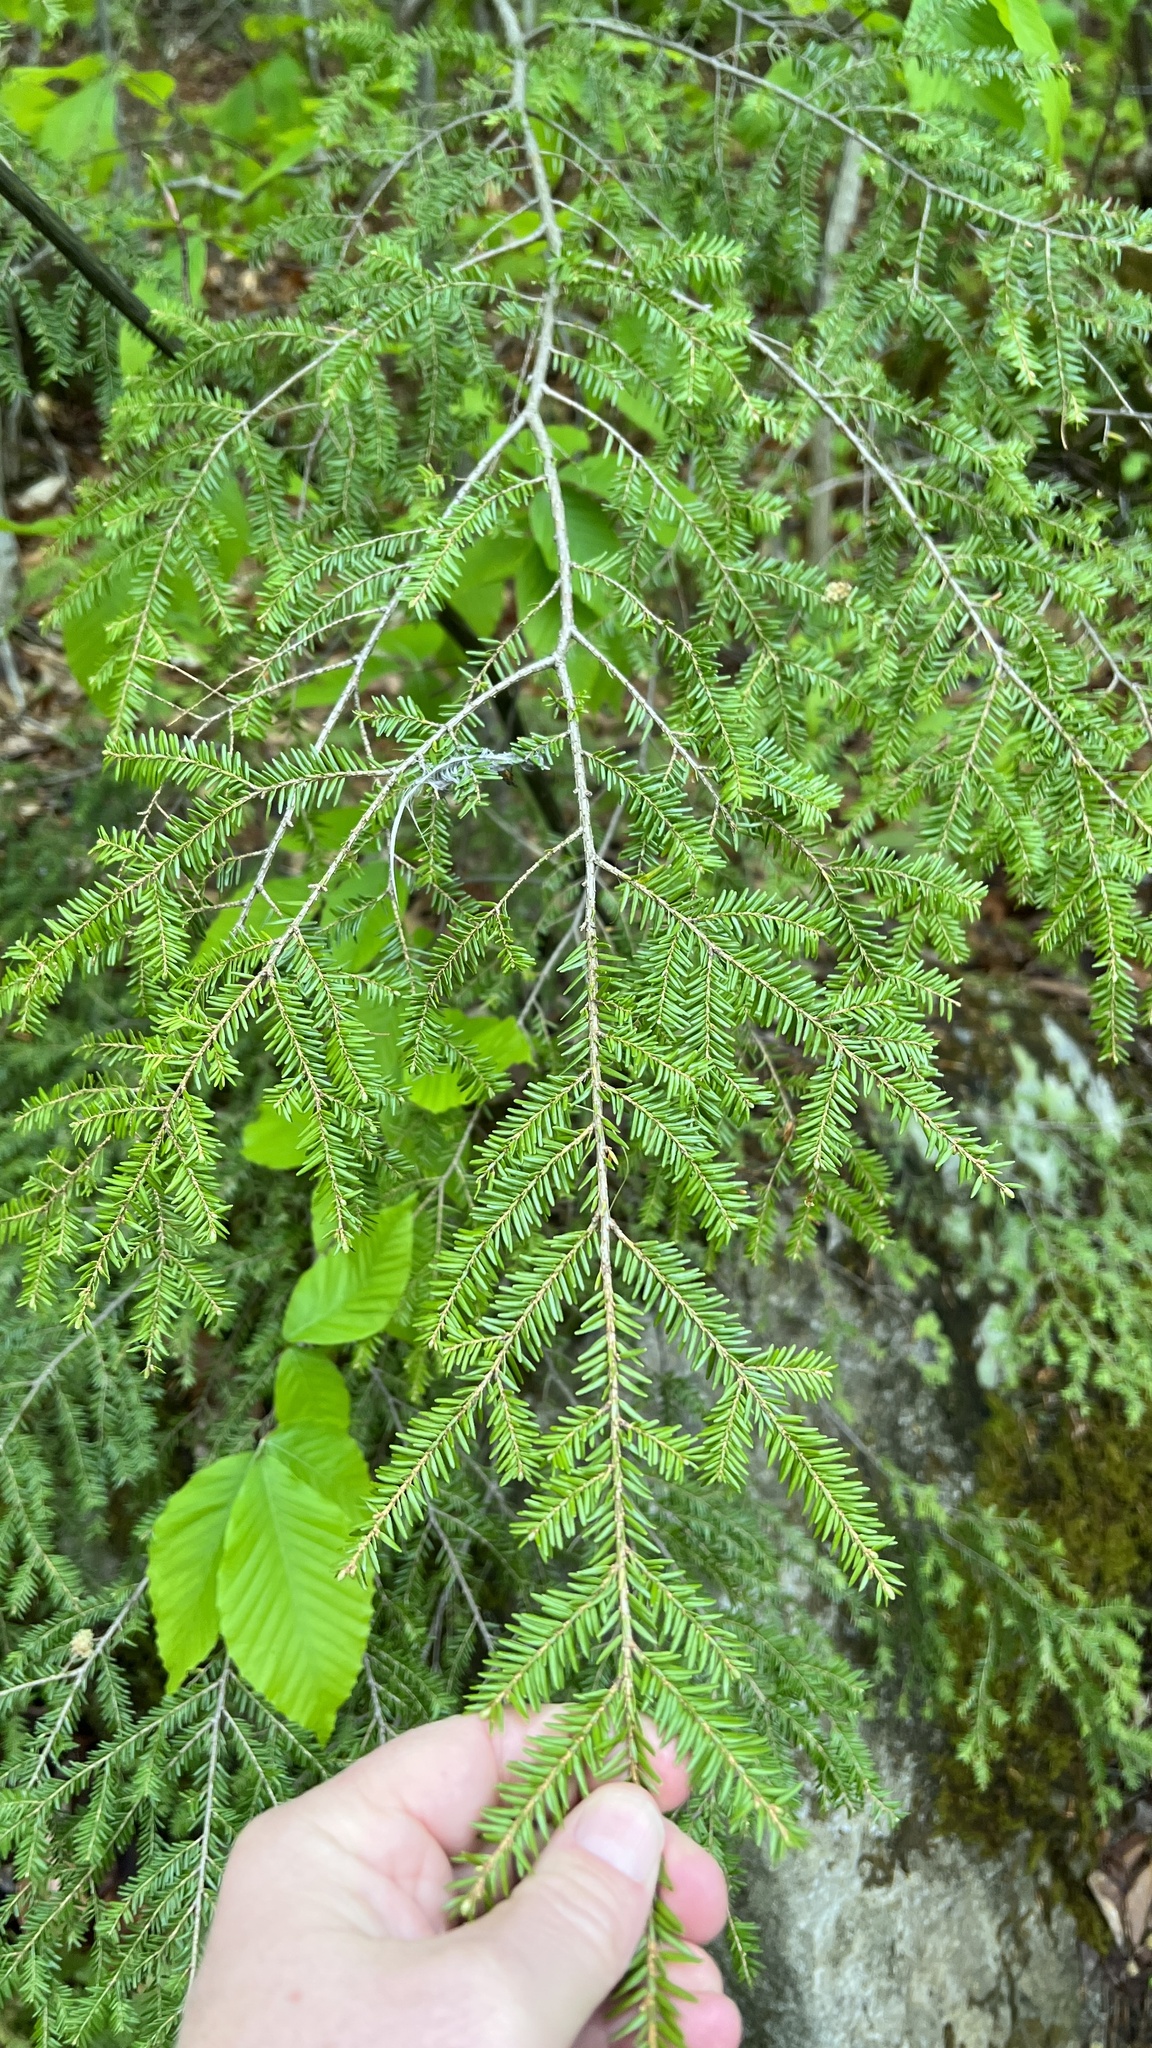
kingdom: Plantae
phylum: Tracheophyta
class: Pinopsida
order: Pinales
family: Pinaceae
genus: Tsuga
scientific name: Tsuga canadensis
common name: Eastern hemlock
